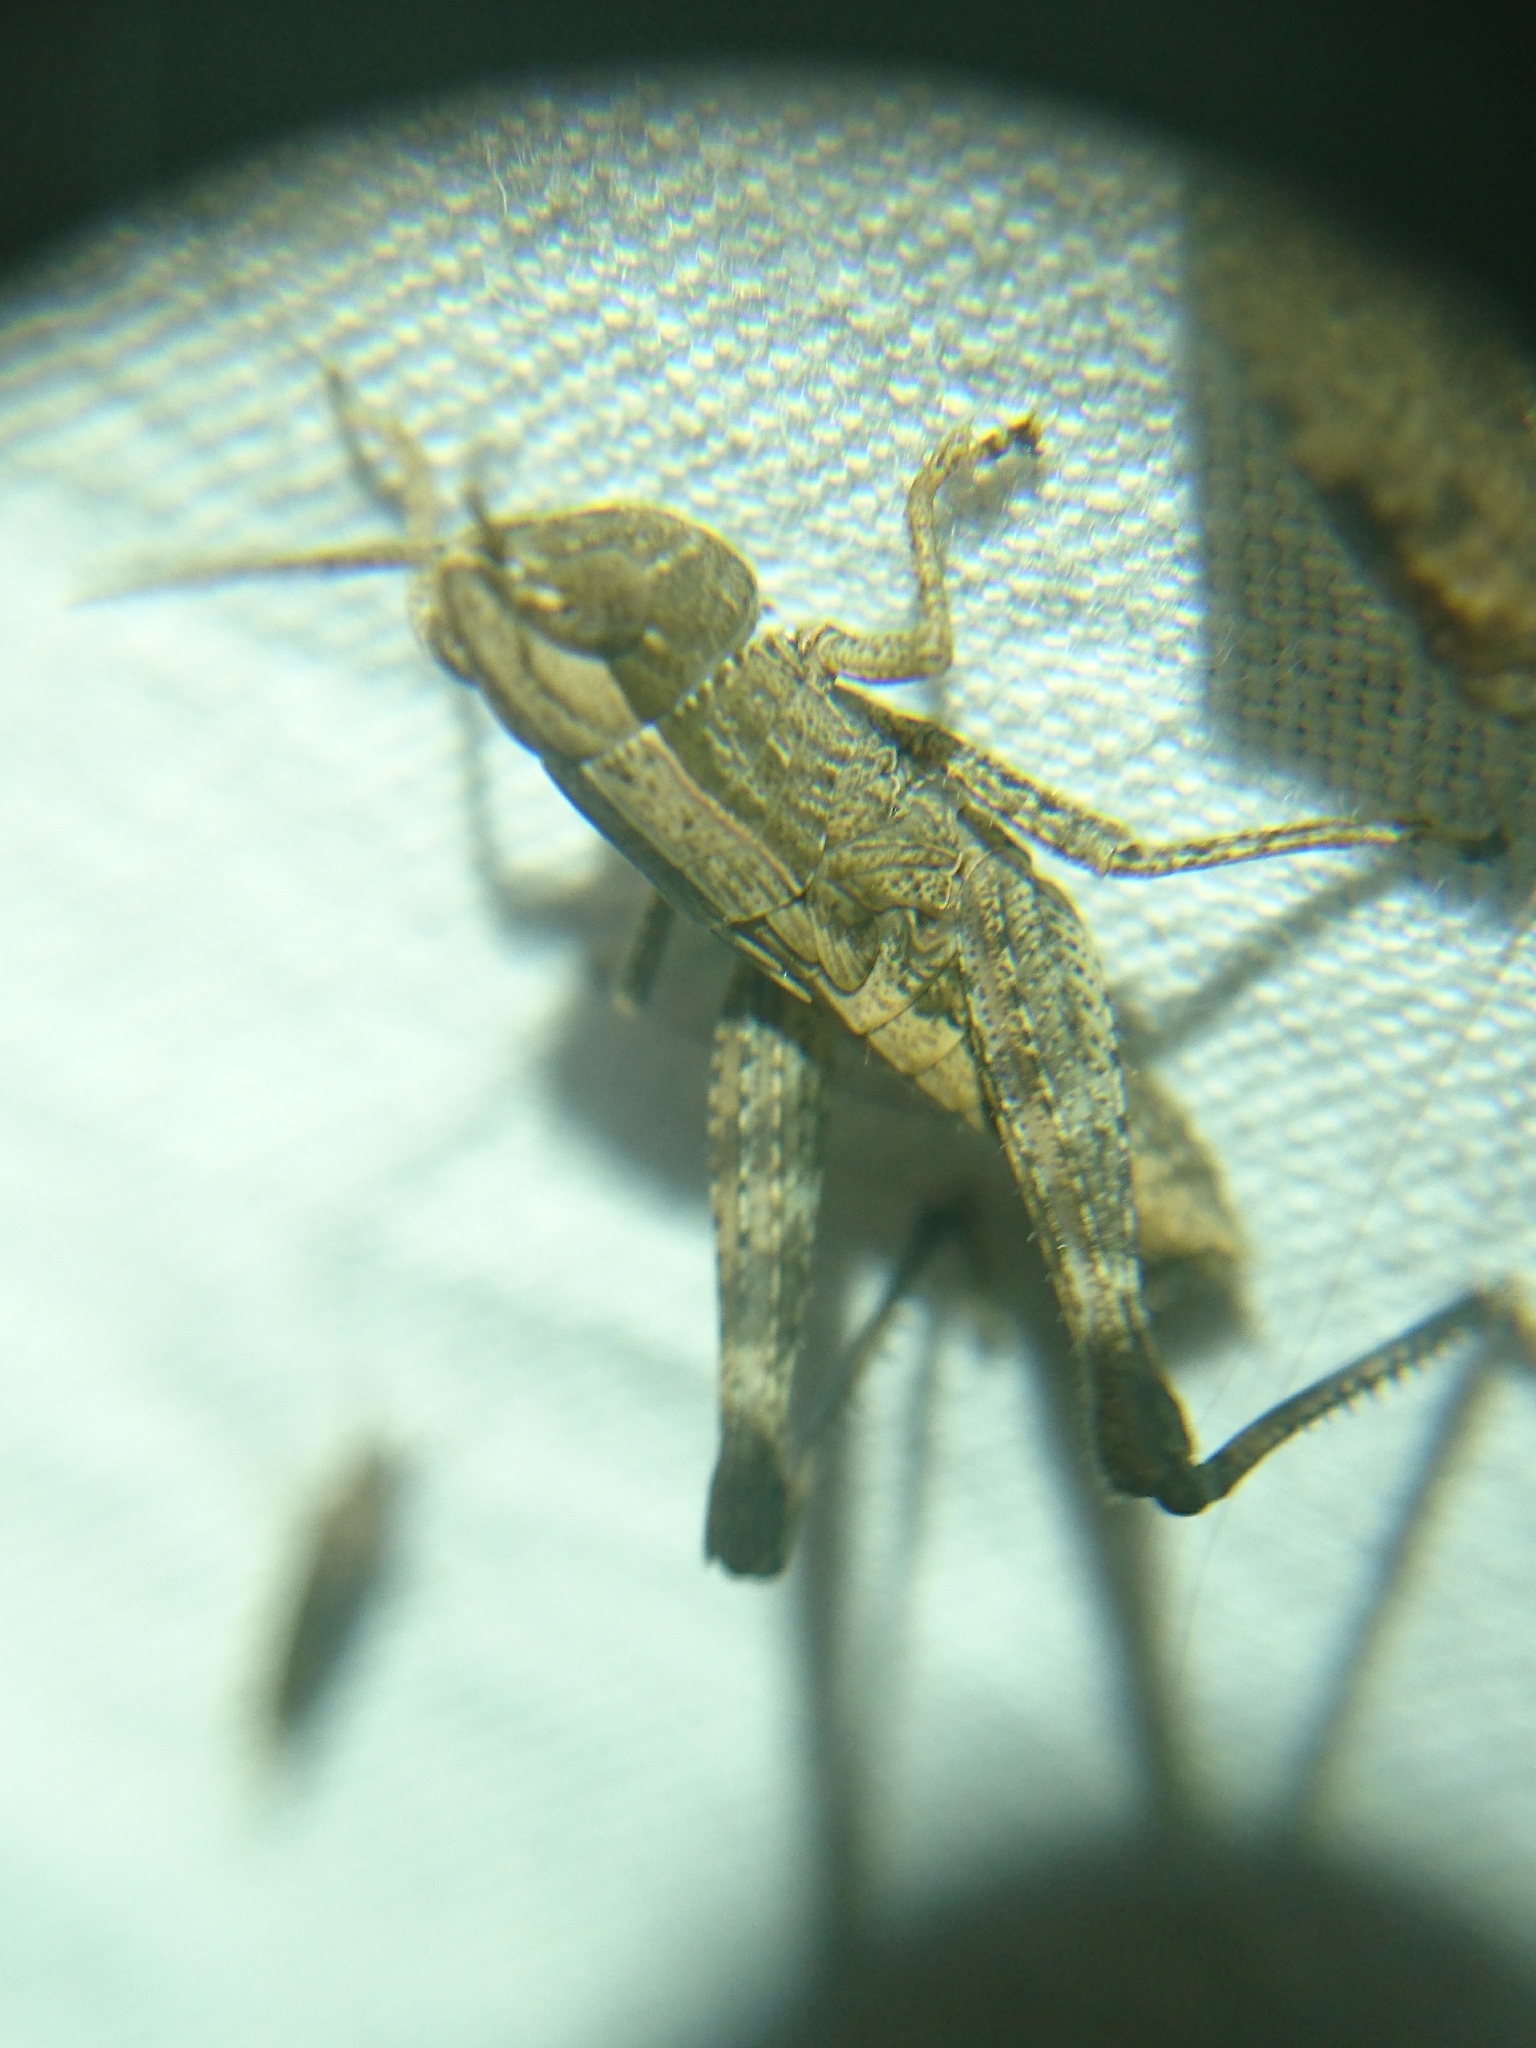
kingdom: Animalia
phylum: Arthropoda
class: Insecta
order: Orthoptera
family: Acrididae
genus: Dichromorpha
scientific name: Dichromorpha viridis
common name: Short-winged green grasshopper
